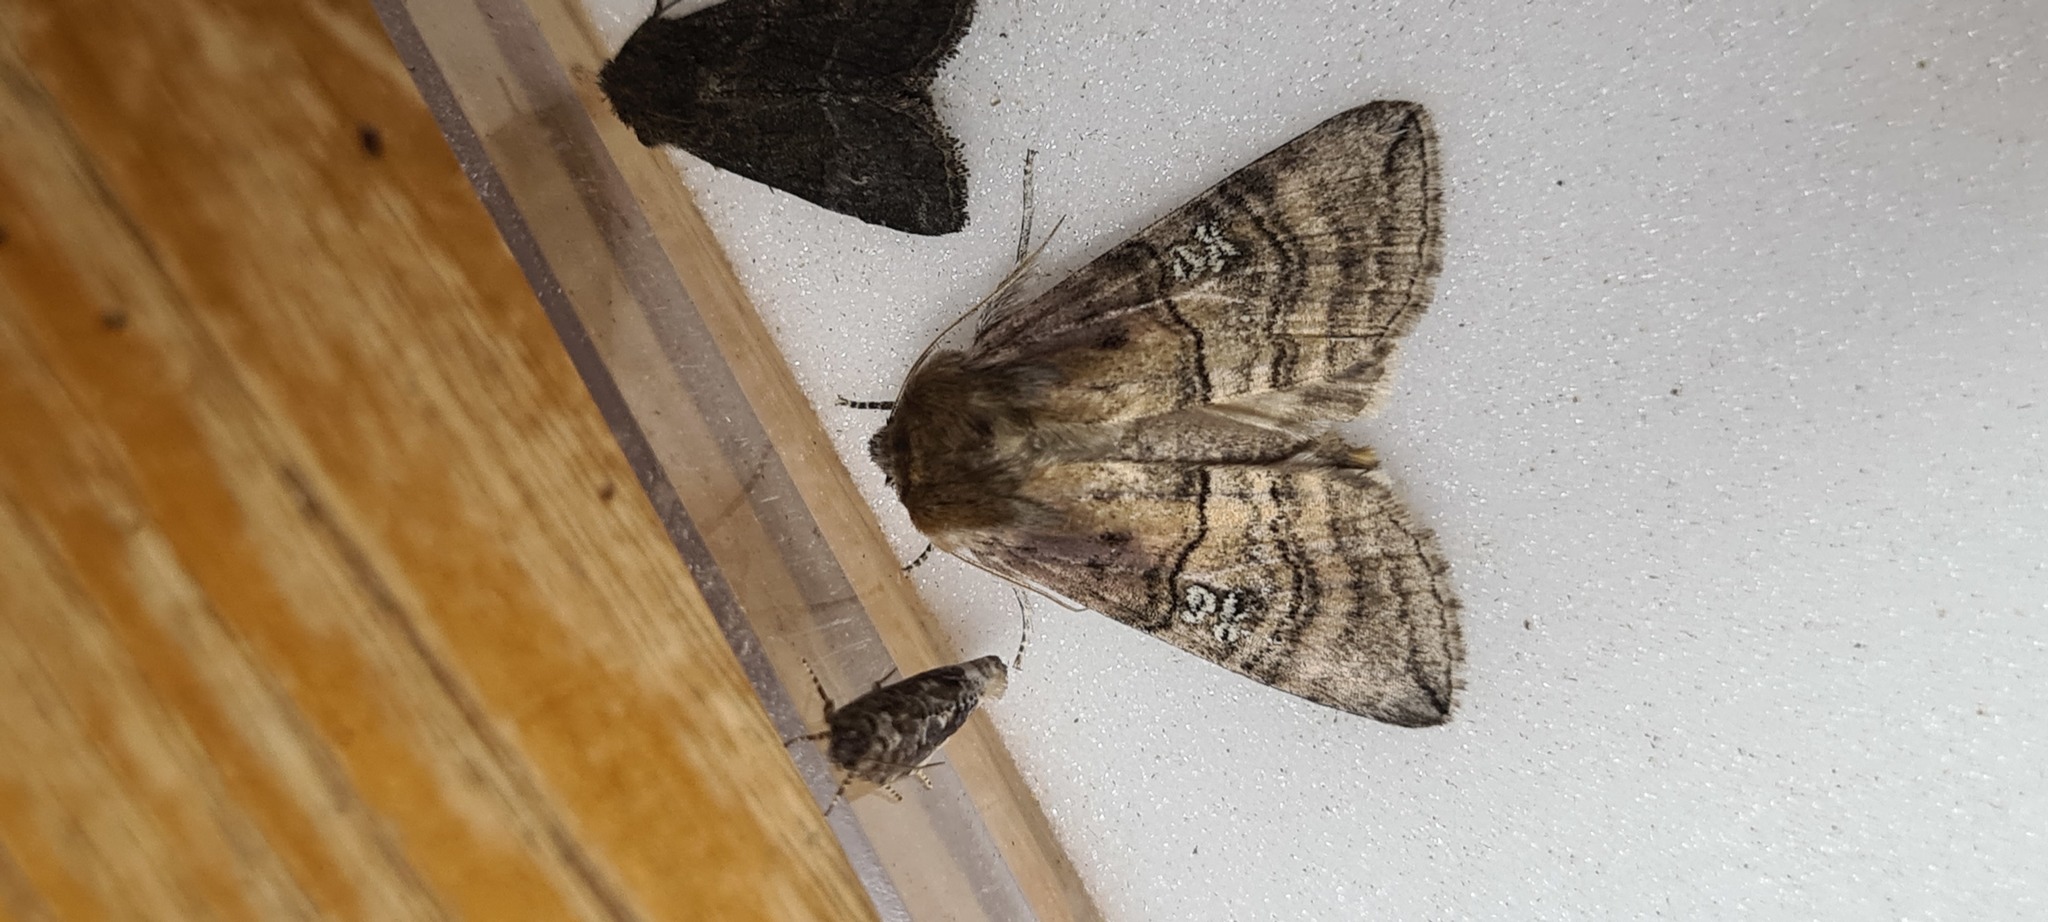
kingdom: Animalia
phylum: Arthropoda
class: Insecta
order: Lepidoptera
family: Drepanidae
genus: Tethea
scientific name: Tethea ocularis
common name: Figure of eighty
